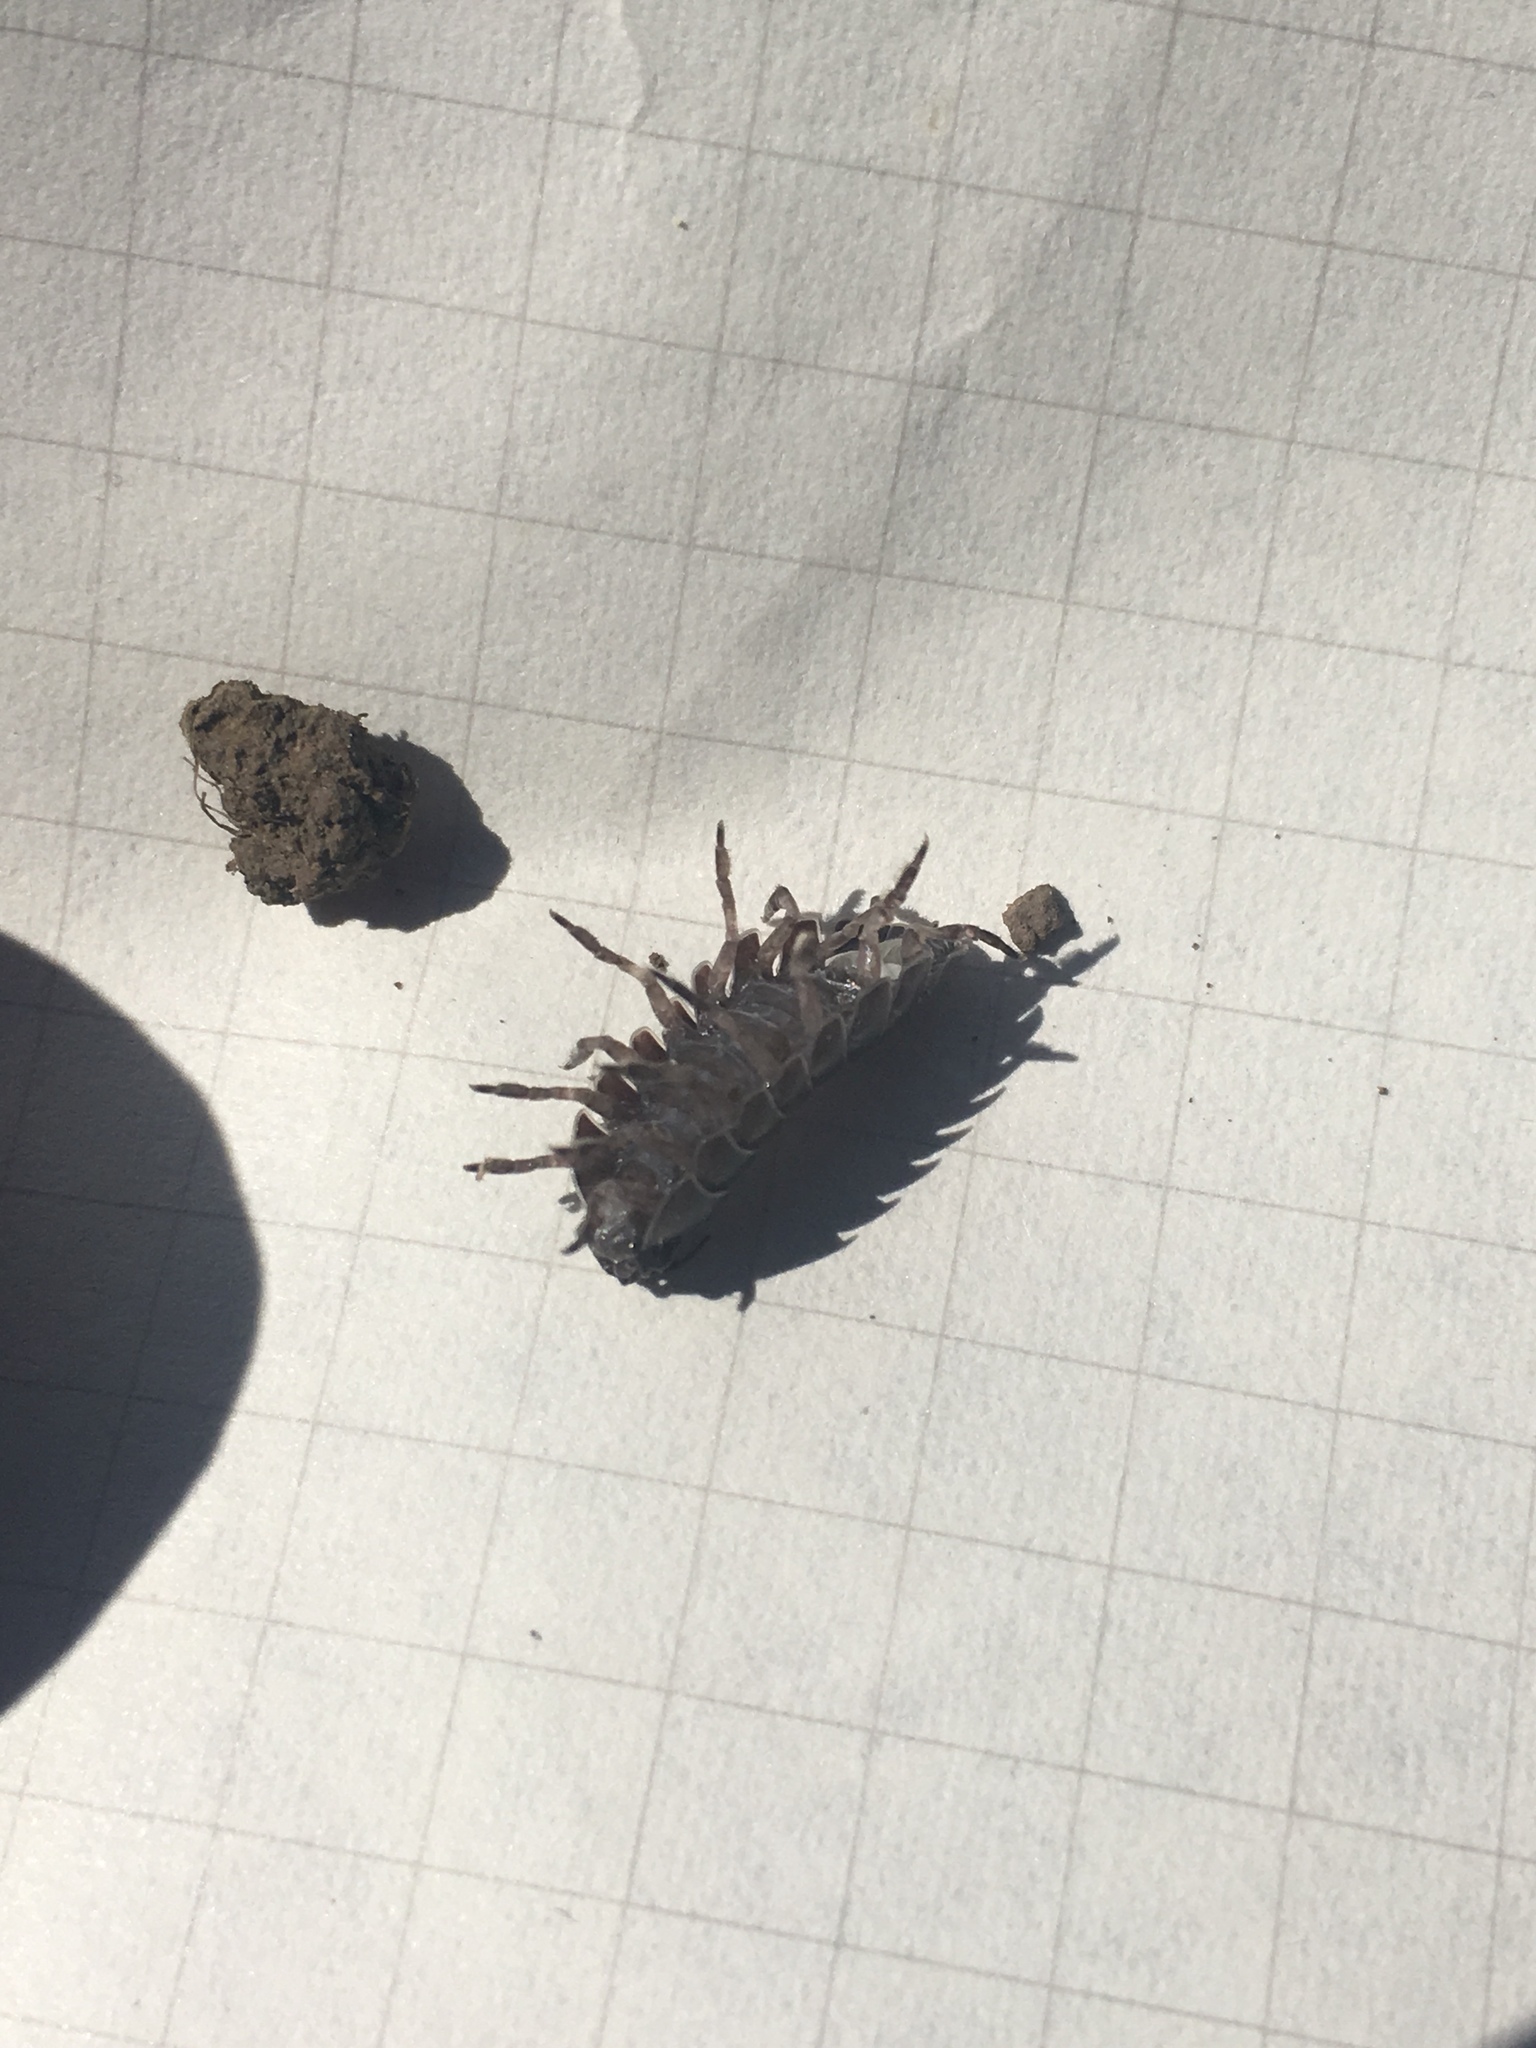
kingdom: Animalia
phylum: Arthropoda
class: Malacostraca
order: Isopoda
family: Armadillidiidae
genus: Armadillidium
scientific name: Armadillidium vulgare
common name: Common pill woodlouse
